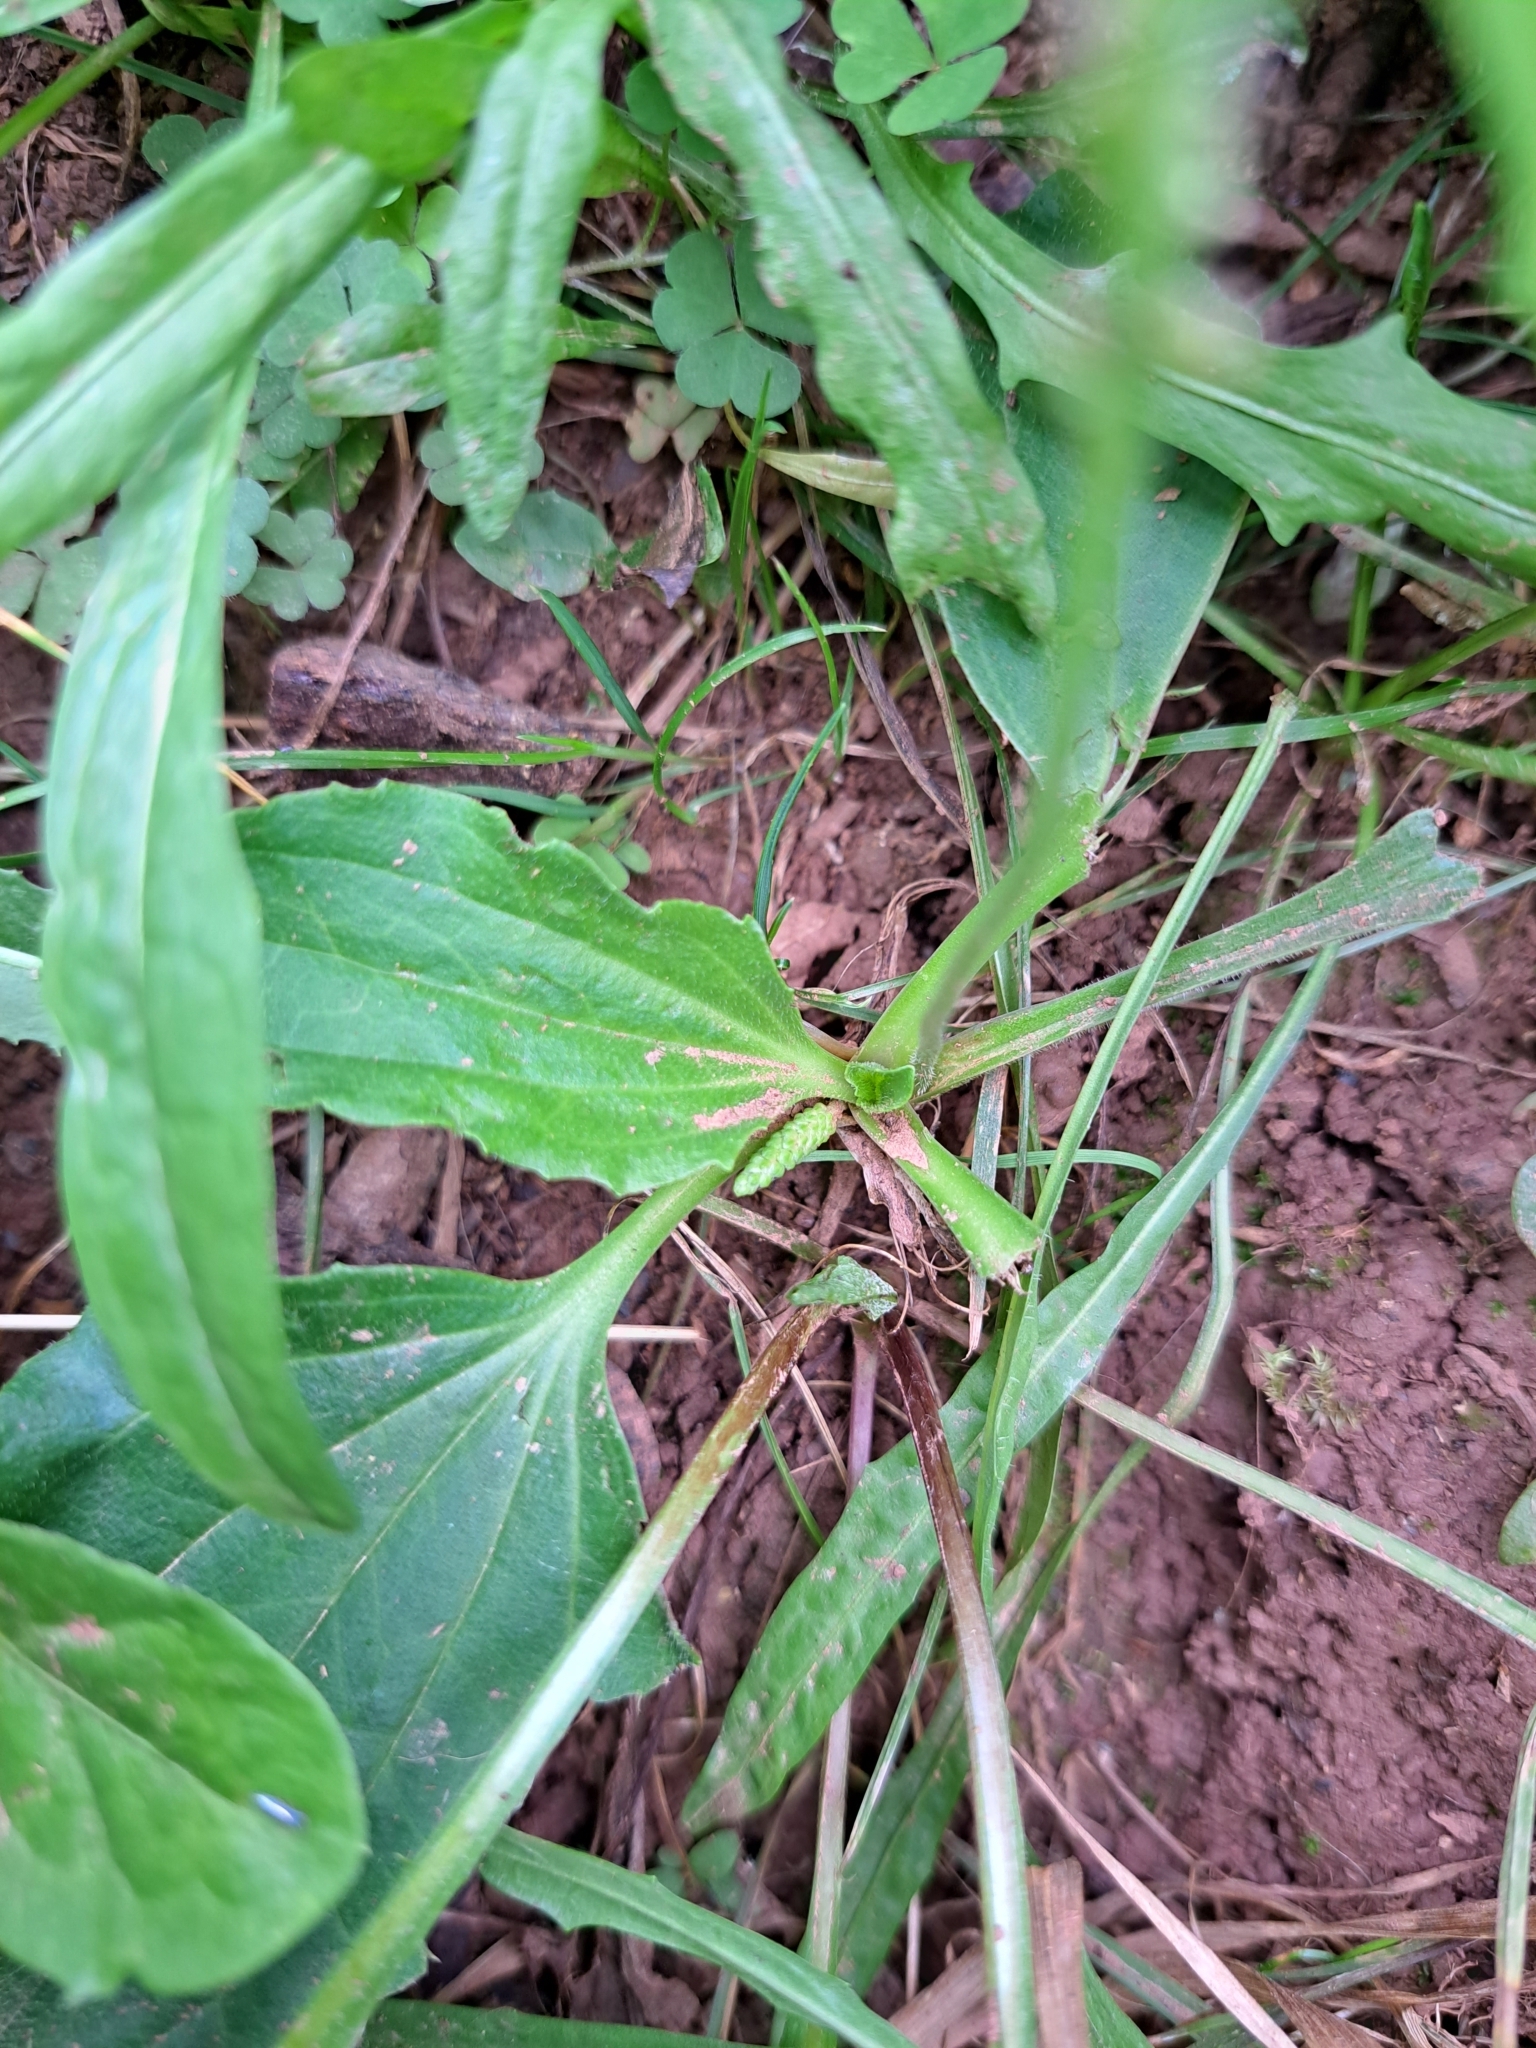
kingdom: Plantae
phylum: Tracheophyta
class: Magnoliopsida
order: Lamiales
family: Plantaginaceae
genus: Plantago
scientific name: Plantago major
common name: Common plantain
